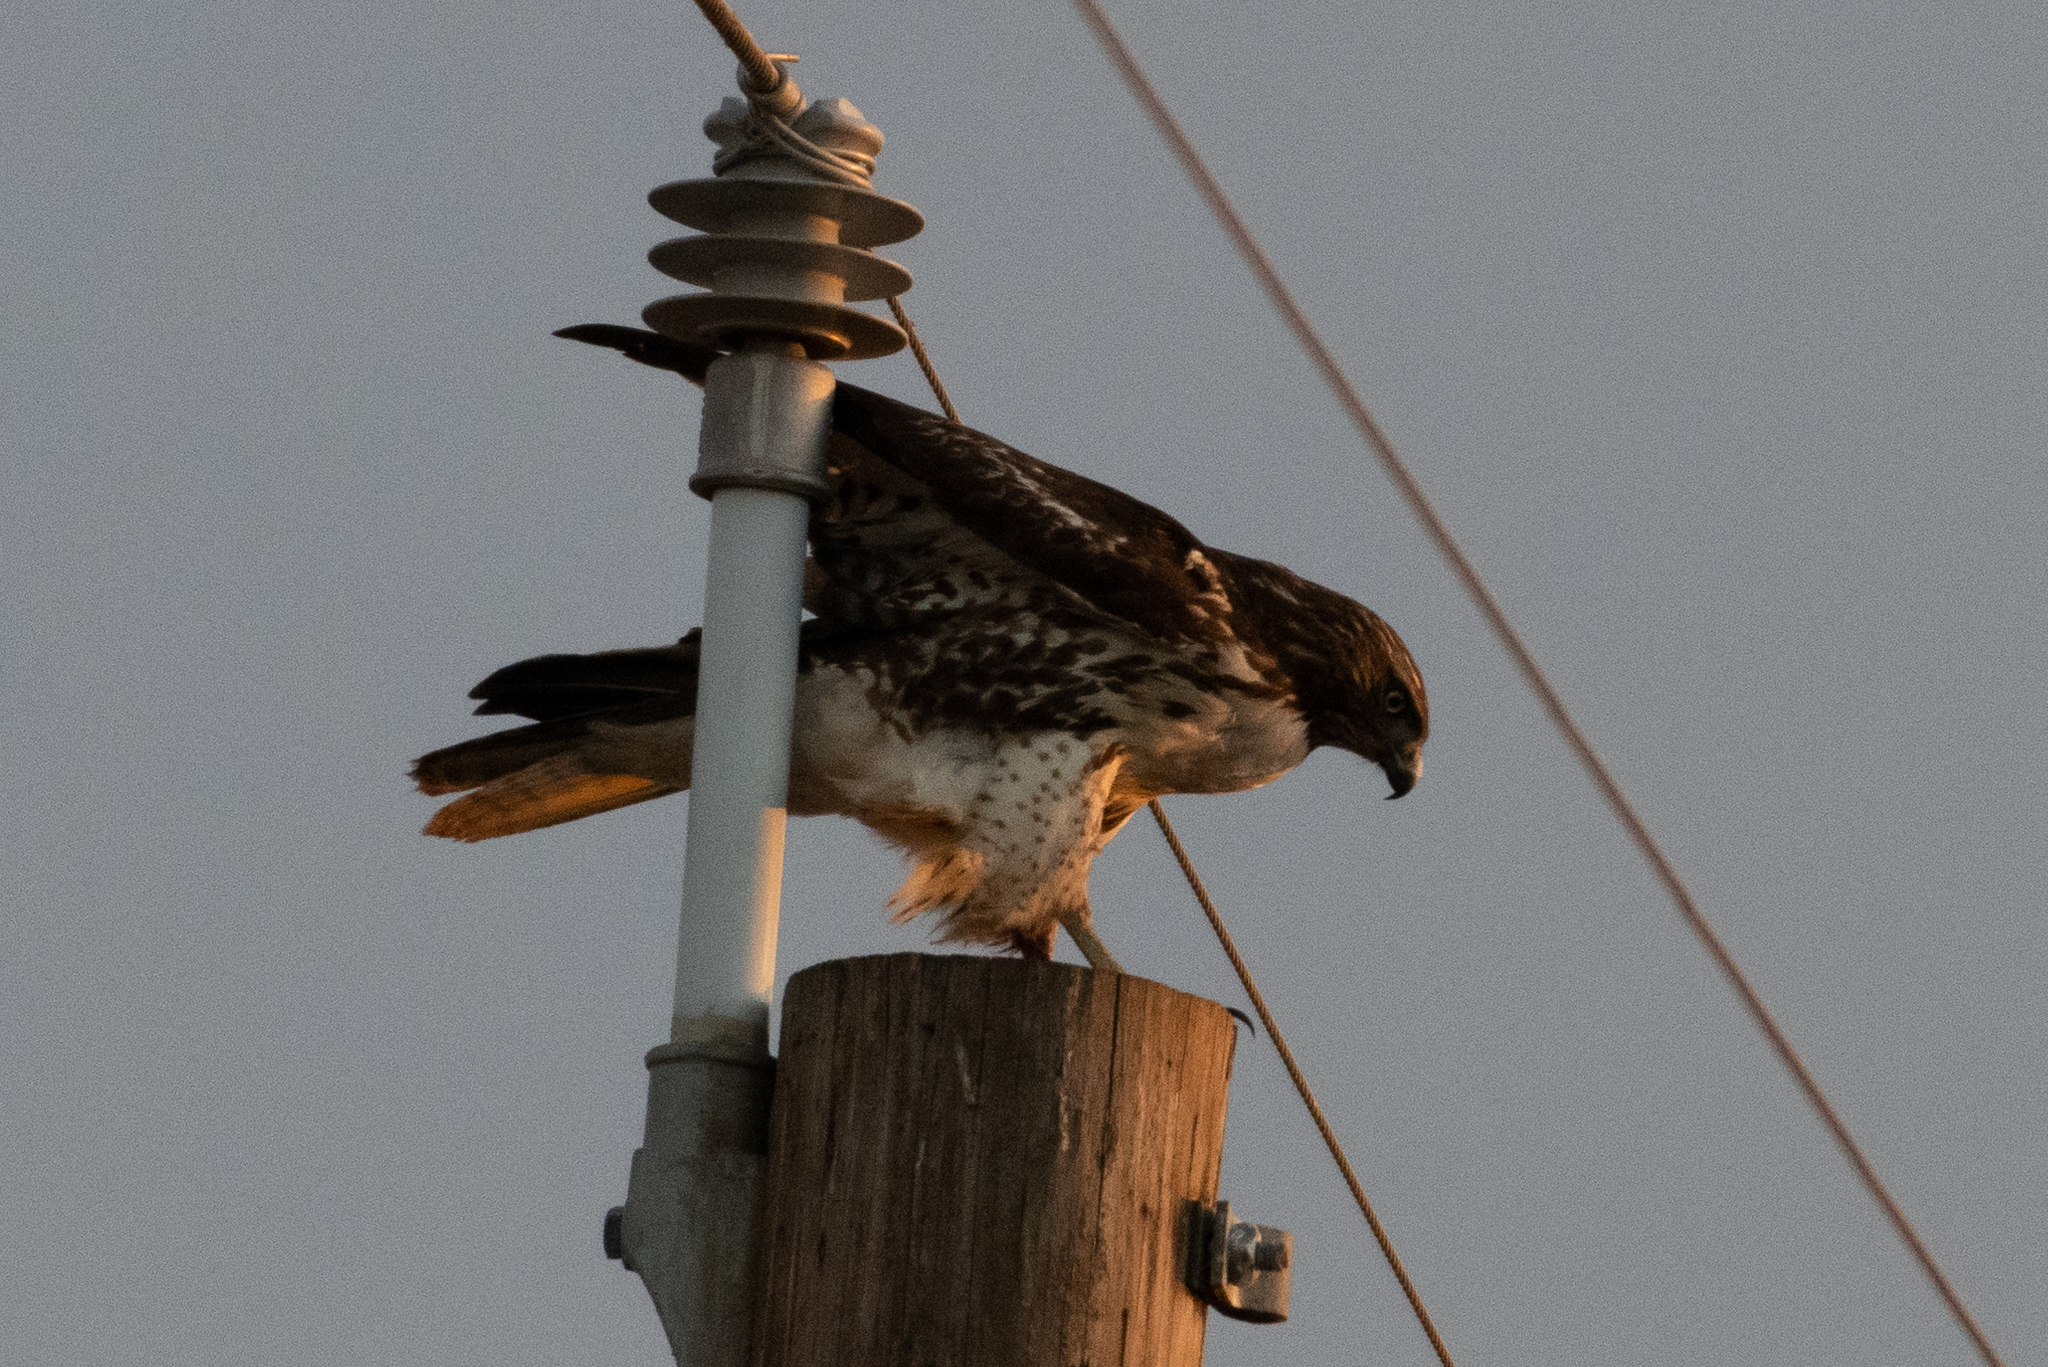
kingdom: Animalia
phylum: Chordata
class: Aves
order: Accipitriformes
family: Accipitridae
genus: Buteo
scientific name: Buteo jamaicensis
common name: Red-tailed hawk
